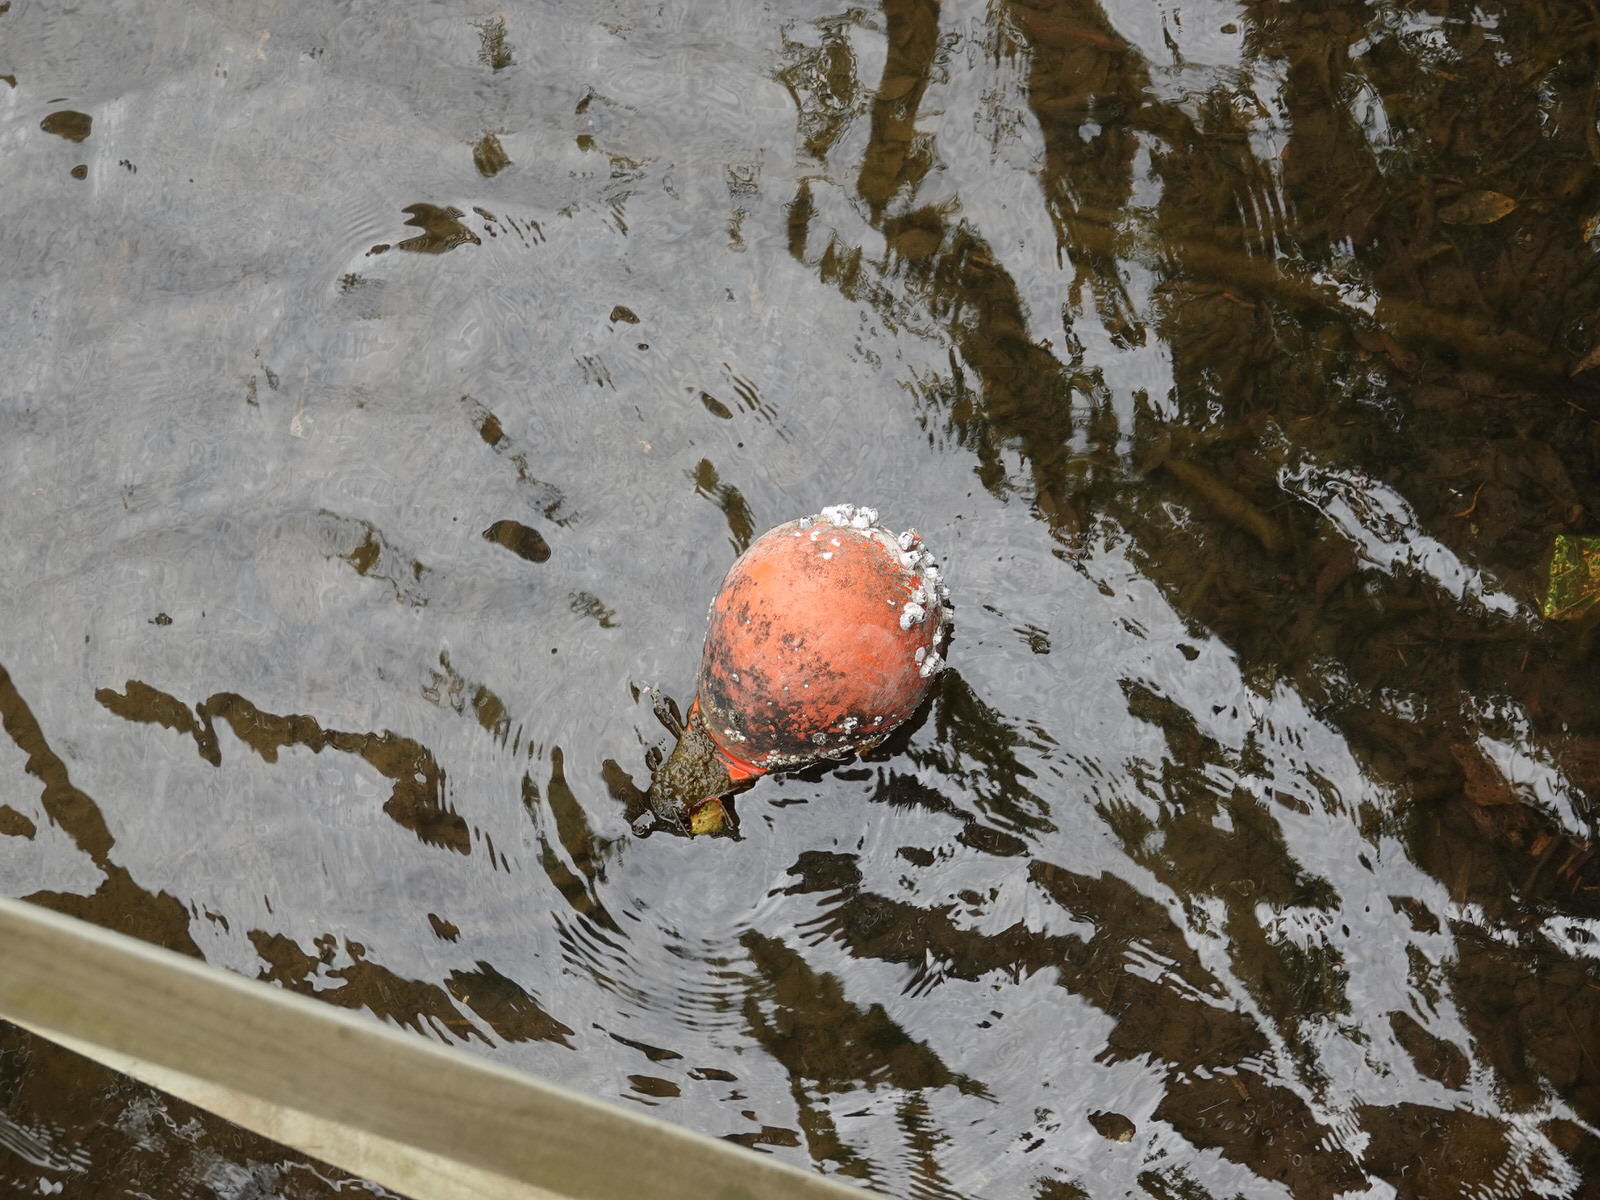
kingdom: Animalia
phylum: Arthropoda
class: Maxillopoda
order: Sessilia
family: Balanidae
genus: Amphibalanus
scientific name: Amphibalanus amphitrite
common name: Striped acorn barnacle
